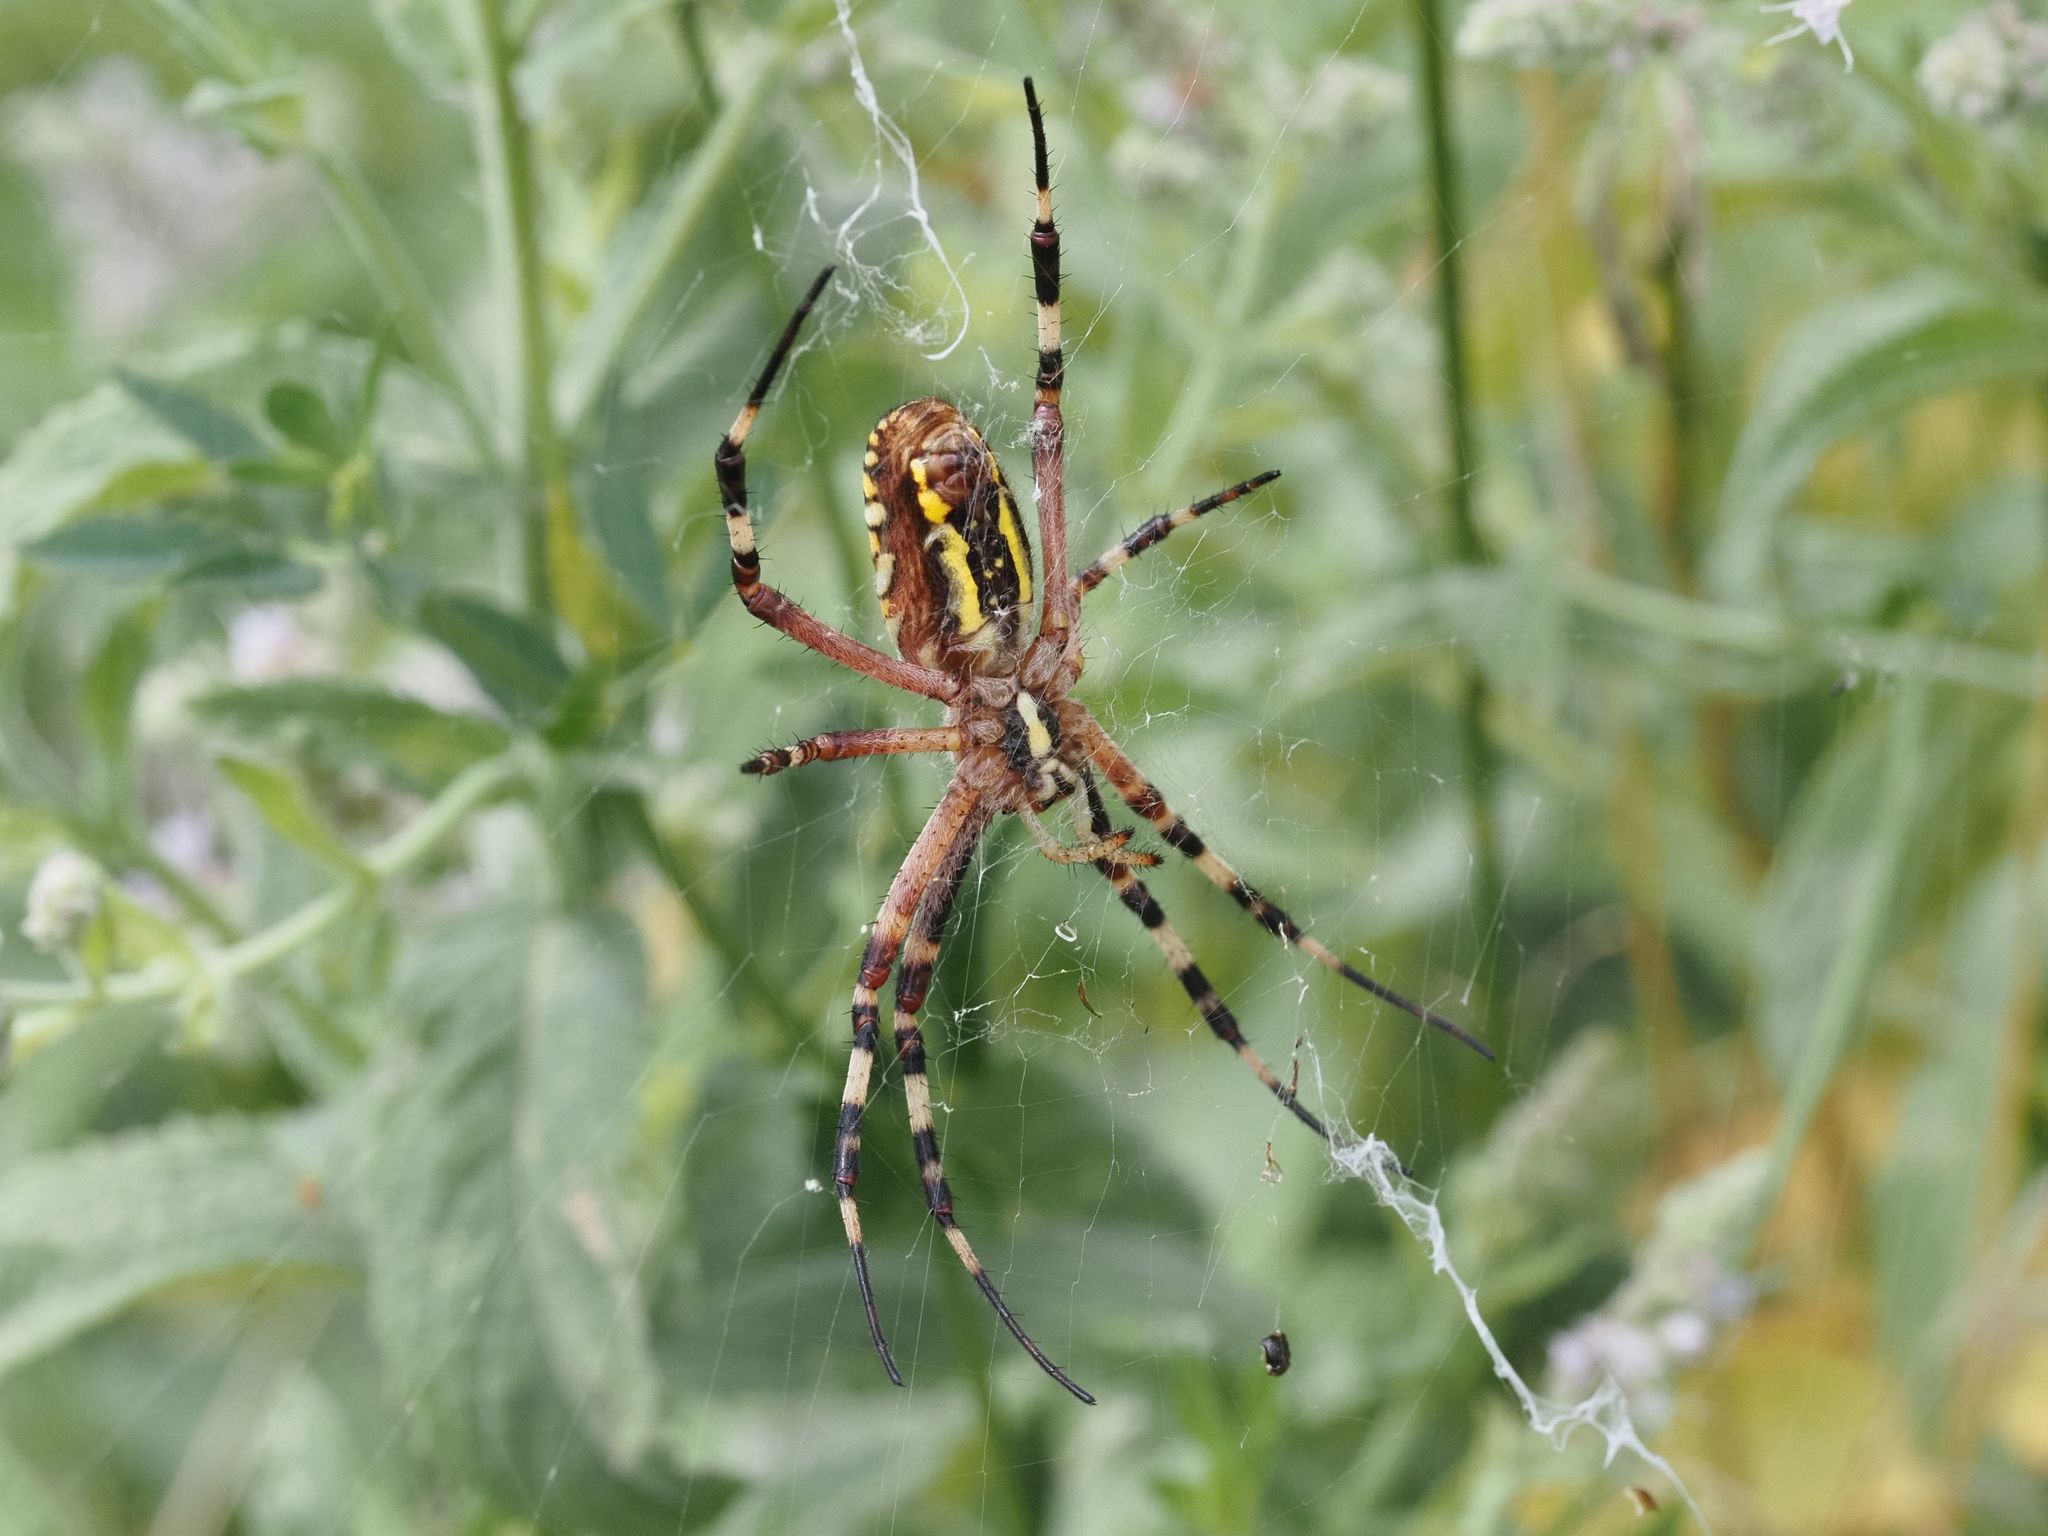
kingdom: Animalia
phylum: Arthropoda
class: Arachnida
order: Araneae
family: Araneidae
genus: Argiope
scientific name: Argiope bruennichi
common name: Wasp spider
